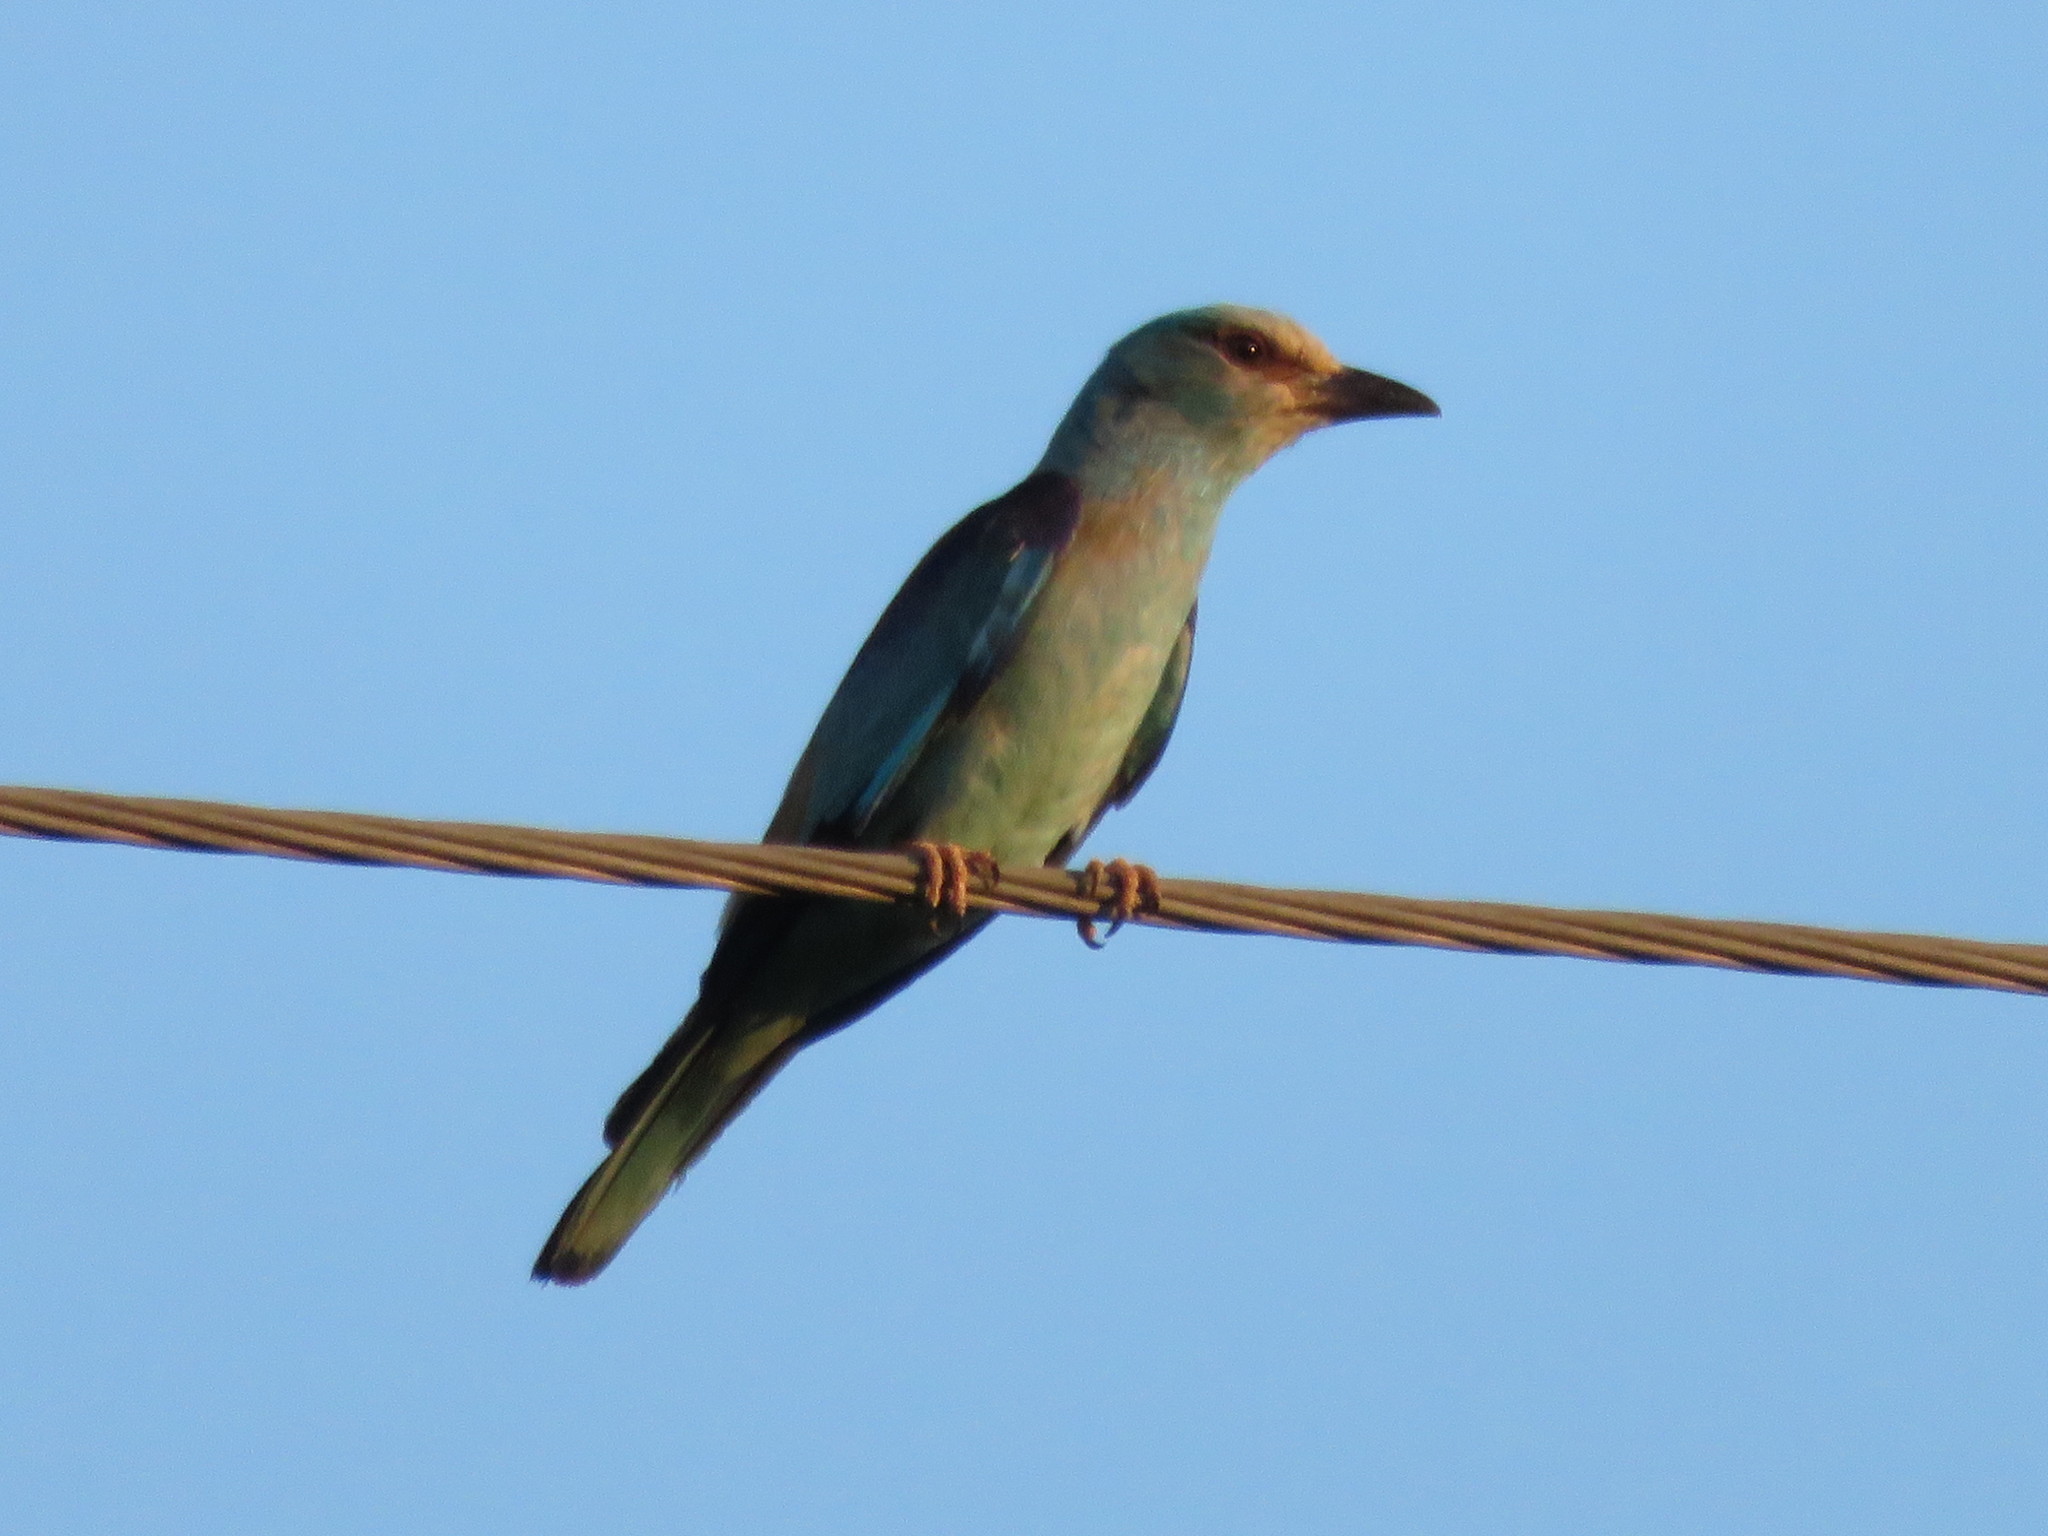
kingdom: Animalia
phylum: Chordata
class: Aves
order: Coraciiformes
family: Coraciidae
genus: Coracias
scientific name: Coracias garrulus
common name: European roller
